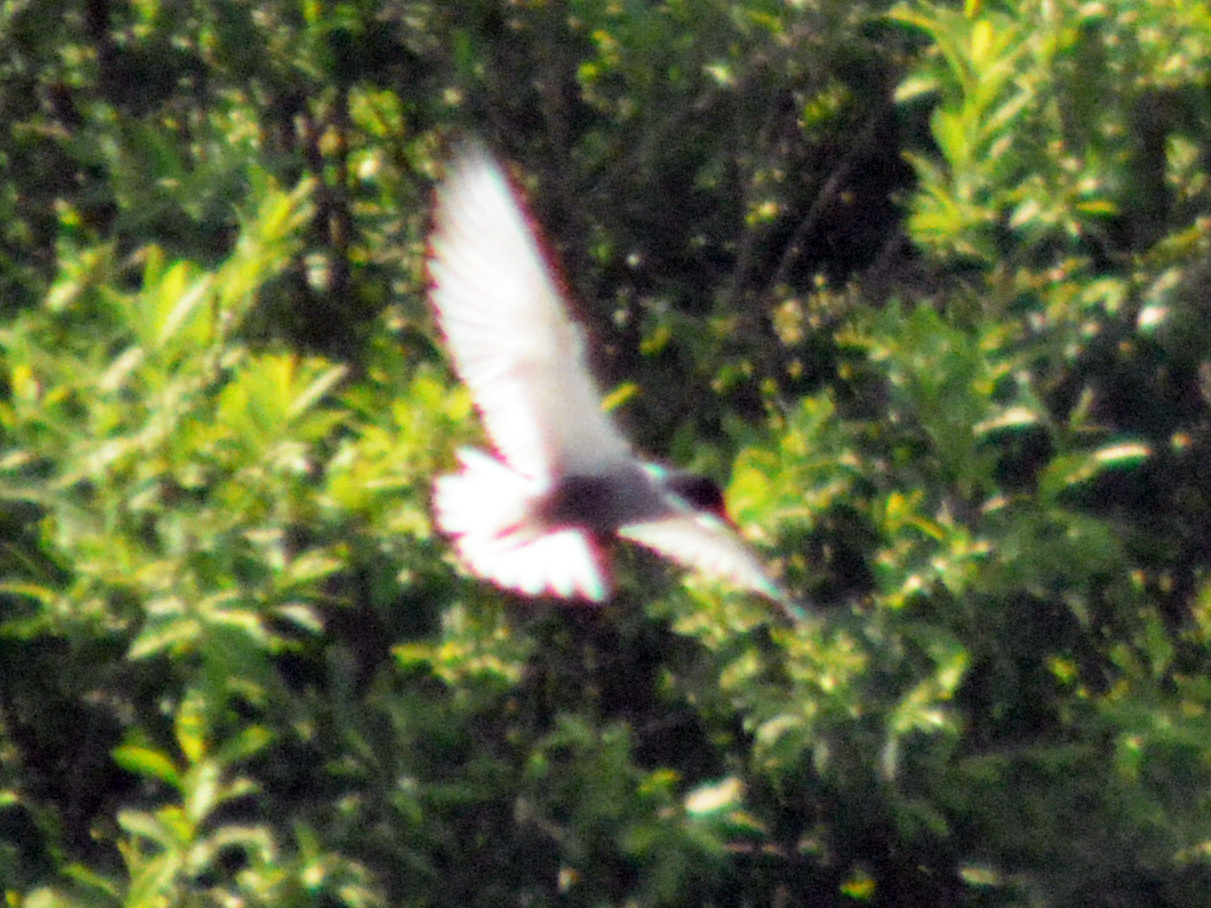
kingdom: Animalia
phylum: Chordata
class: Aves
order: Charadriiformes
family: Laridae
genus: Chlidonias
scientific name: Chlidonias hybrida
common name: Whiskered tern
